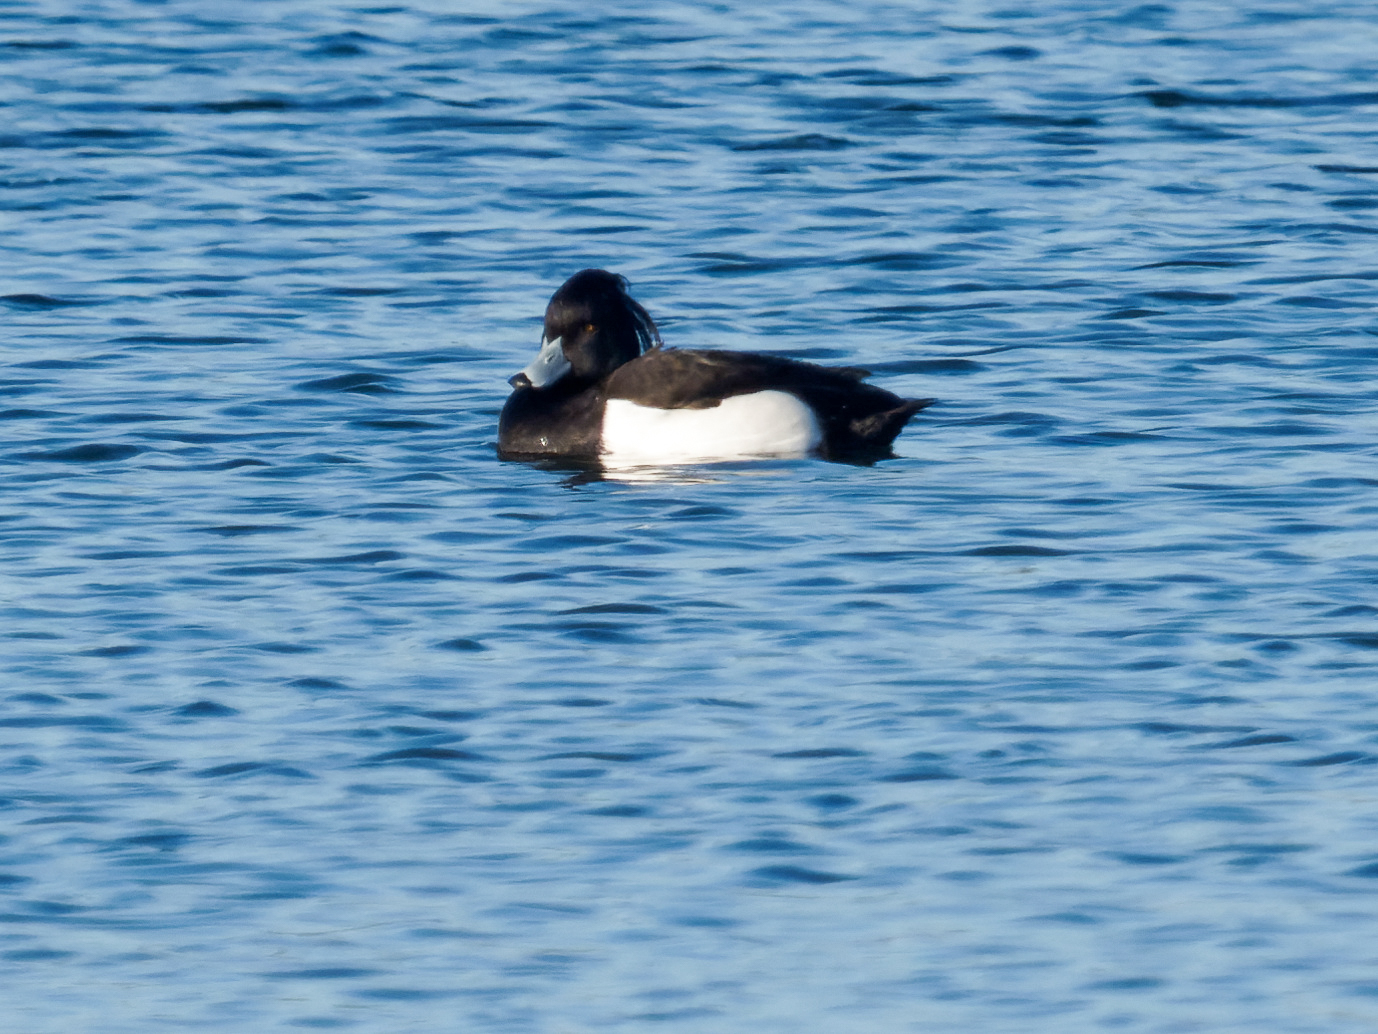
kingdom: Animalia
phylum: Chordata
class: Aves
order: Anseriformes
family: Anatidae
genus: Aythya
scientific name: Aythya fuligula
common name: Tufted duck
